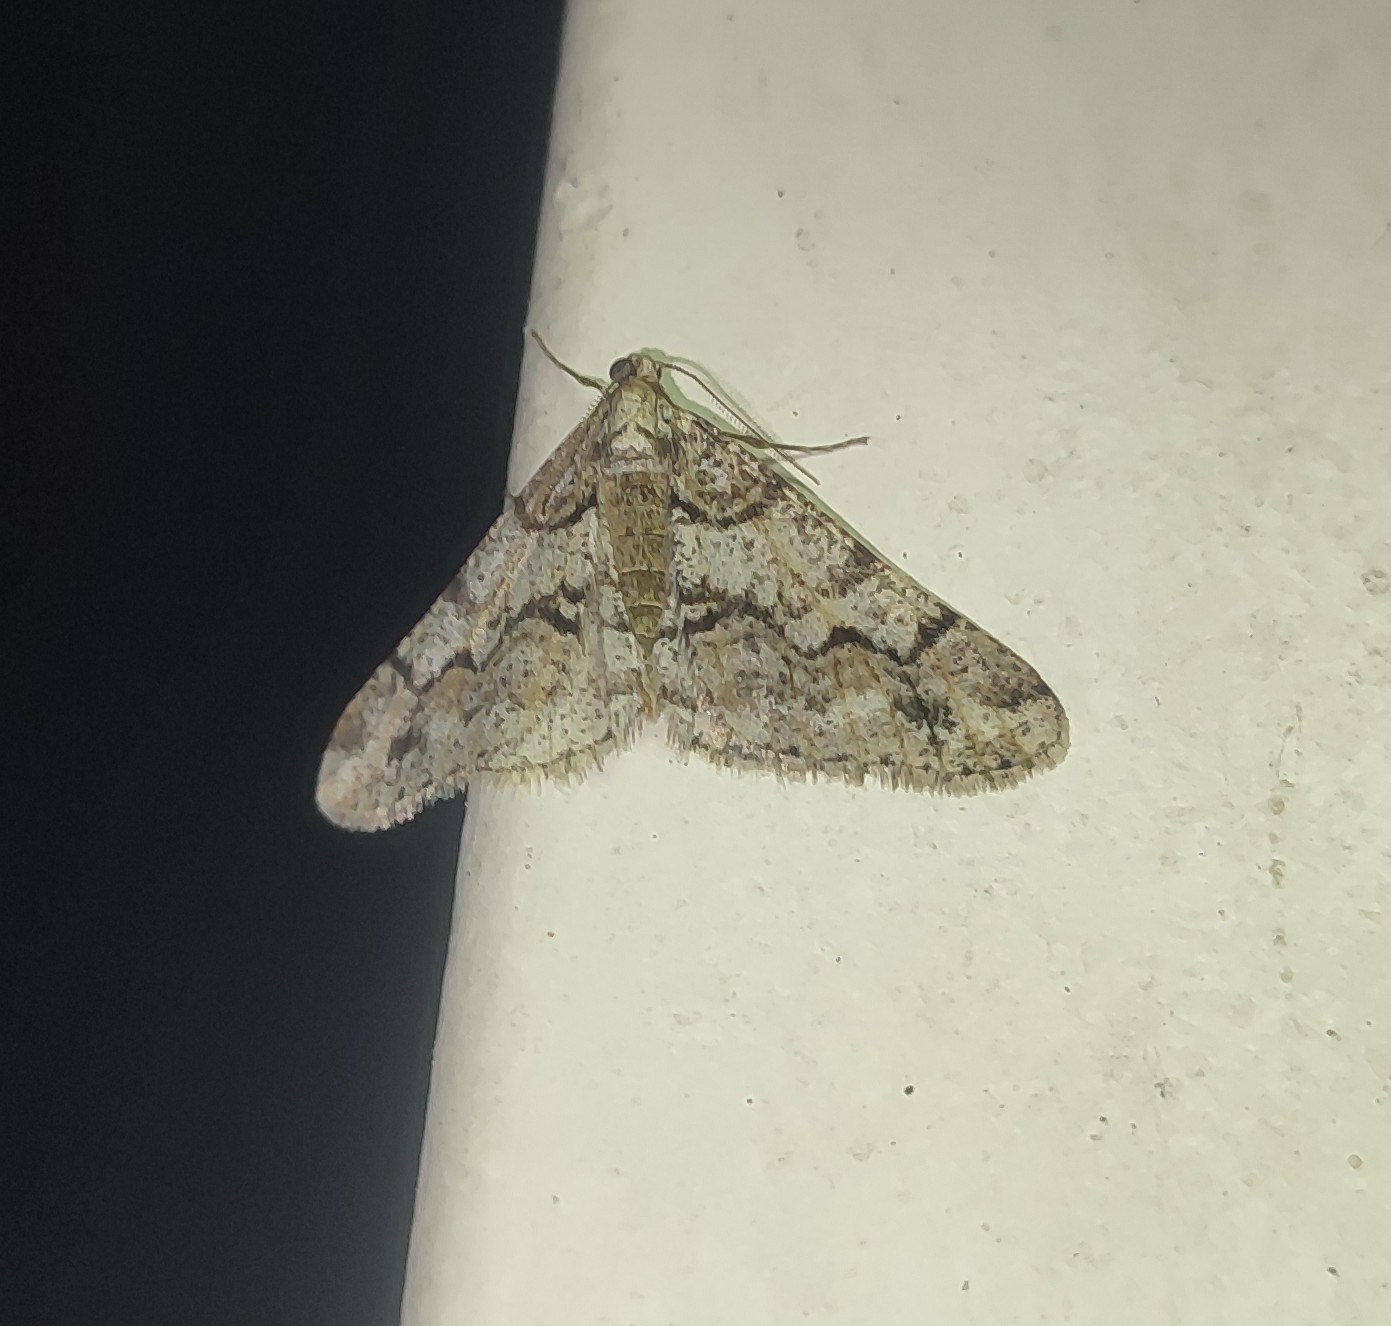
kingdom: Animalia
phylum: Arthropoda
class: Insecta
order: Lepidoptera
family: Geometridae
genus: Agriopis
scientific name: Agriopis leucophaearia
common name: Spring usher
